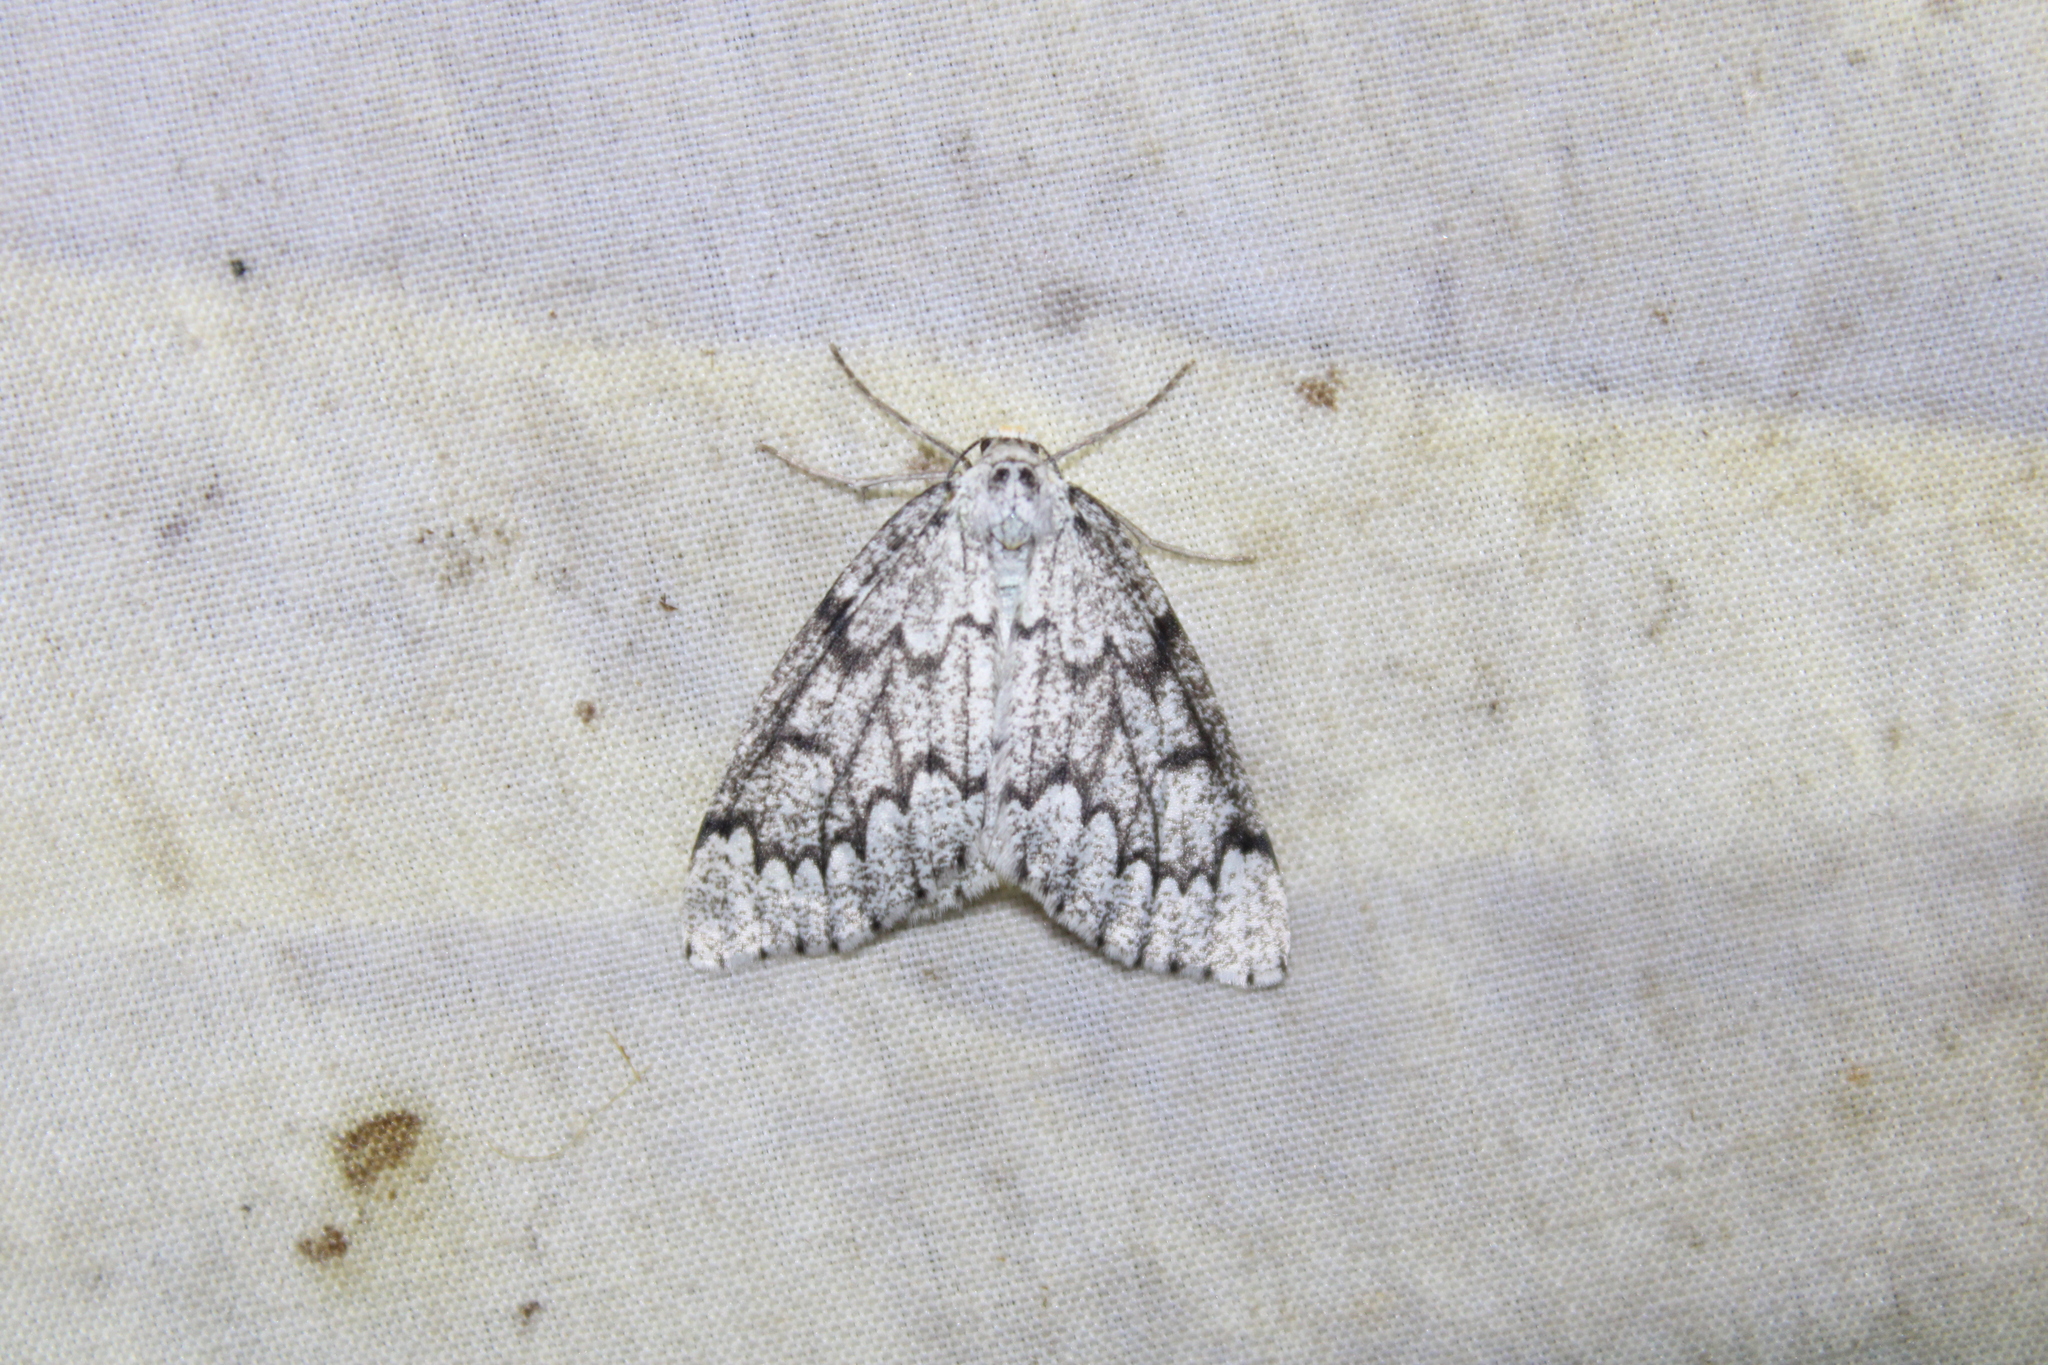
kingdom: Animalia
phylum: Arthropoda
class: Insecta
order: Lepidoptera
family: Geometridae
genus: Nepytia
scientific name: Nepytia canosaria
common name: False hemlock looper
